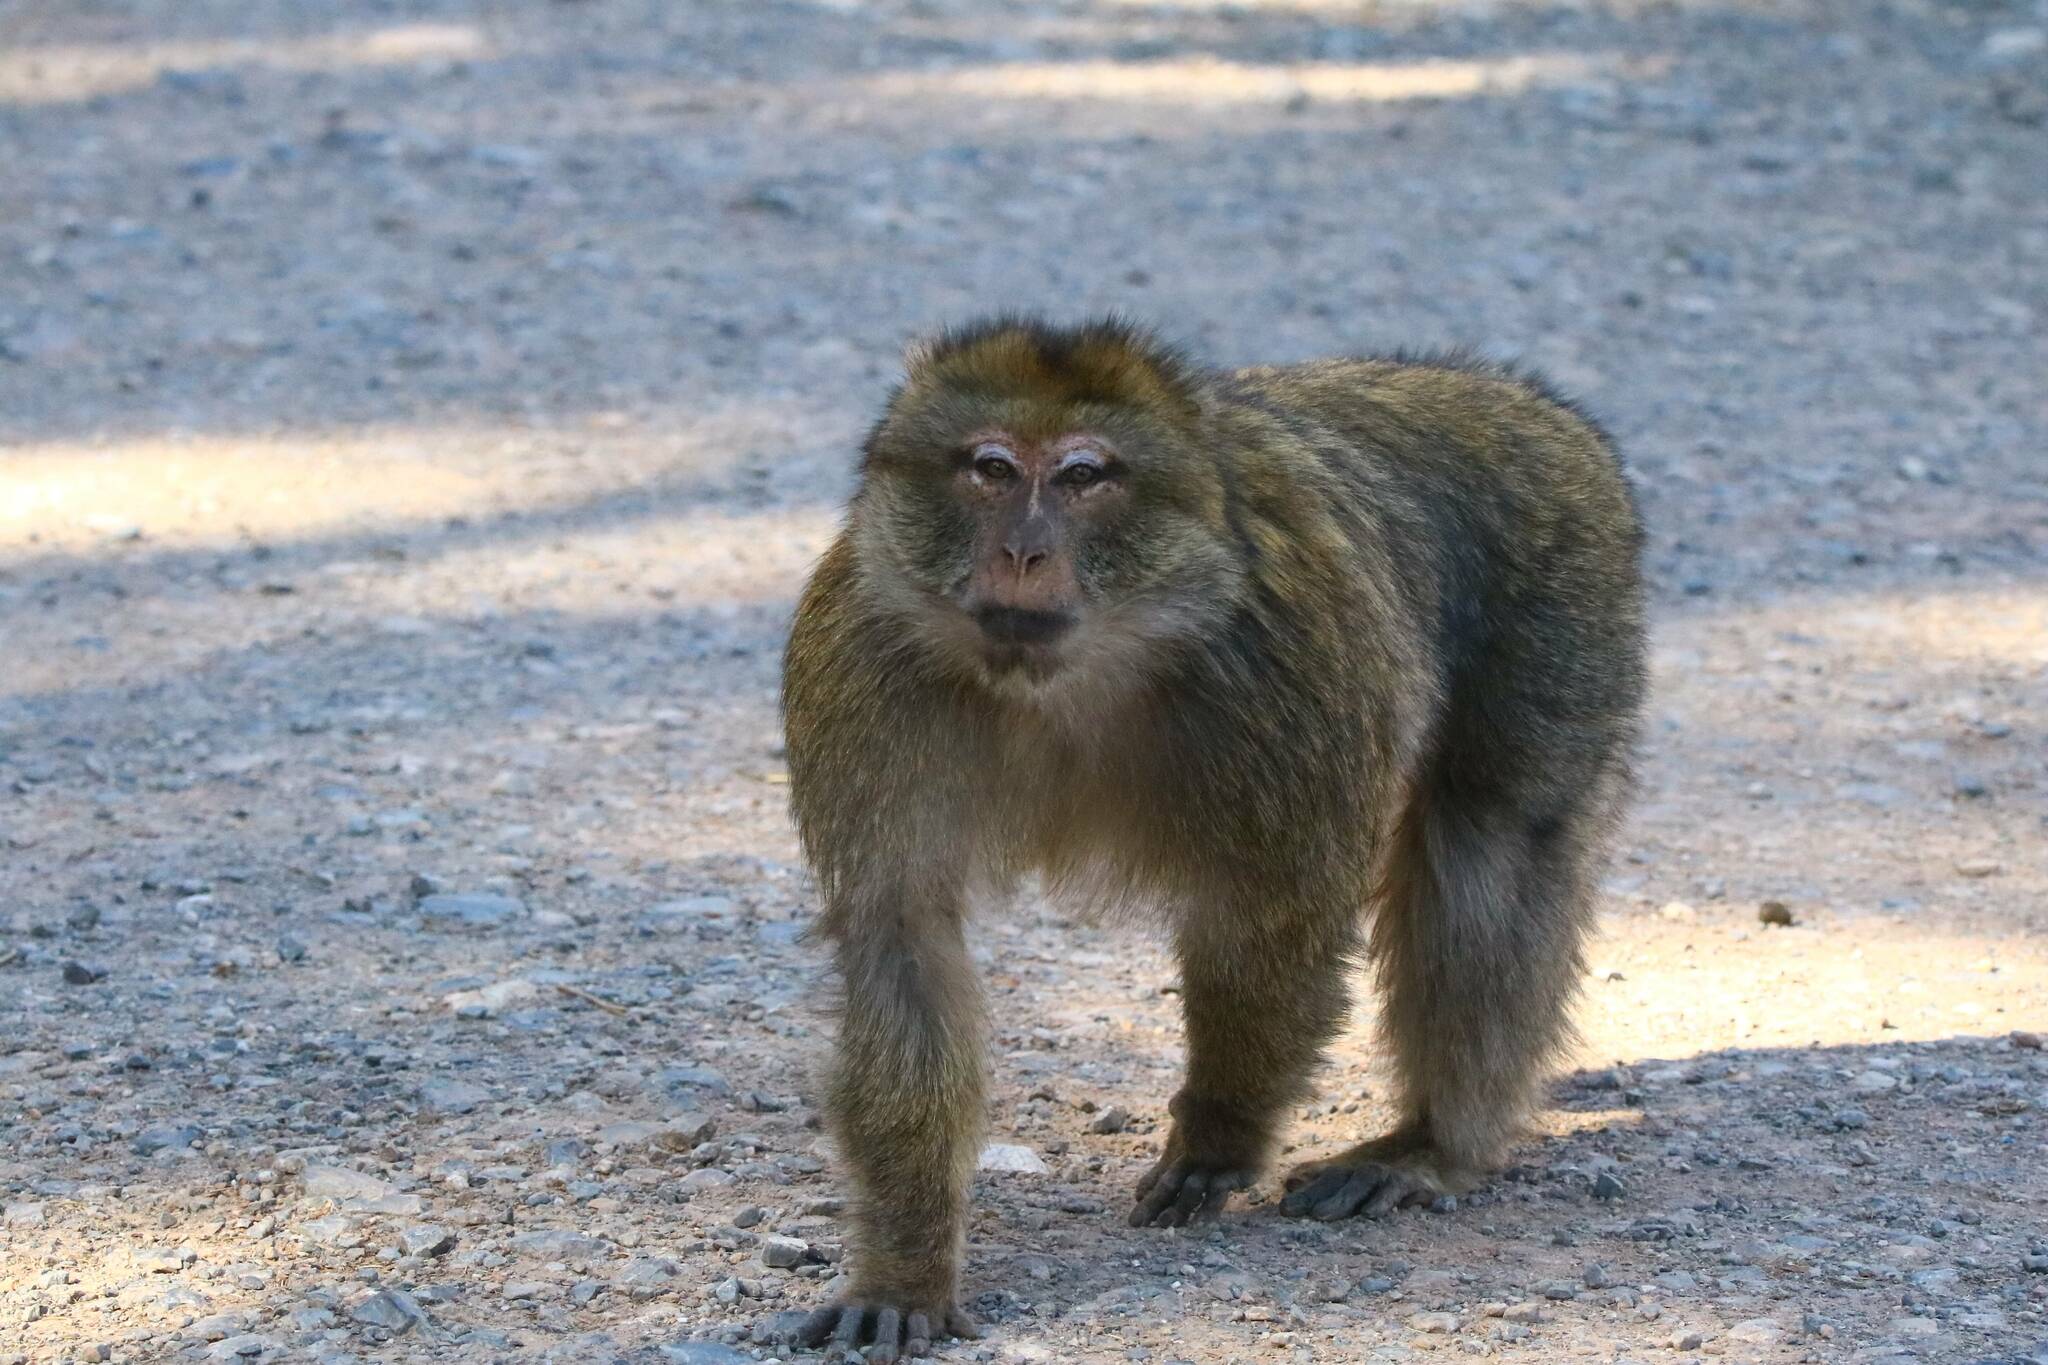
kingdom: Animalia
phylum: Chordata
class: Mammalia
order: Primates
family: Cercopithecidae
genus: Macaca
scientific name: Macaca sylvanus
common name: Barbary macaque
